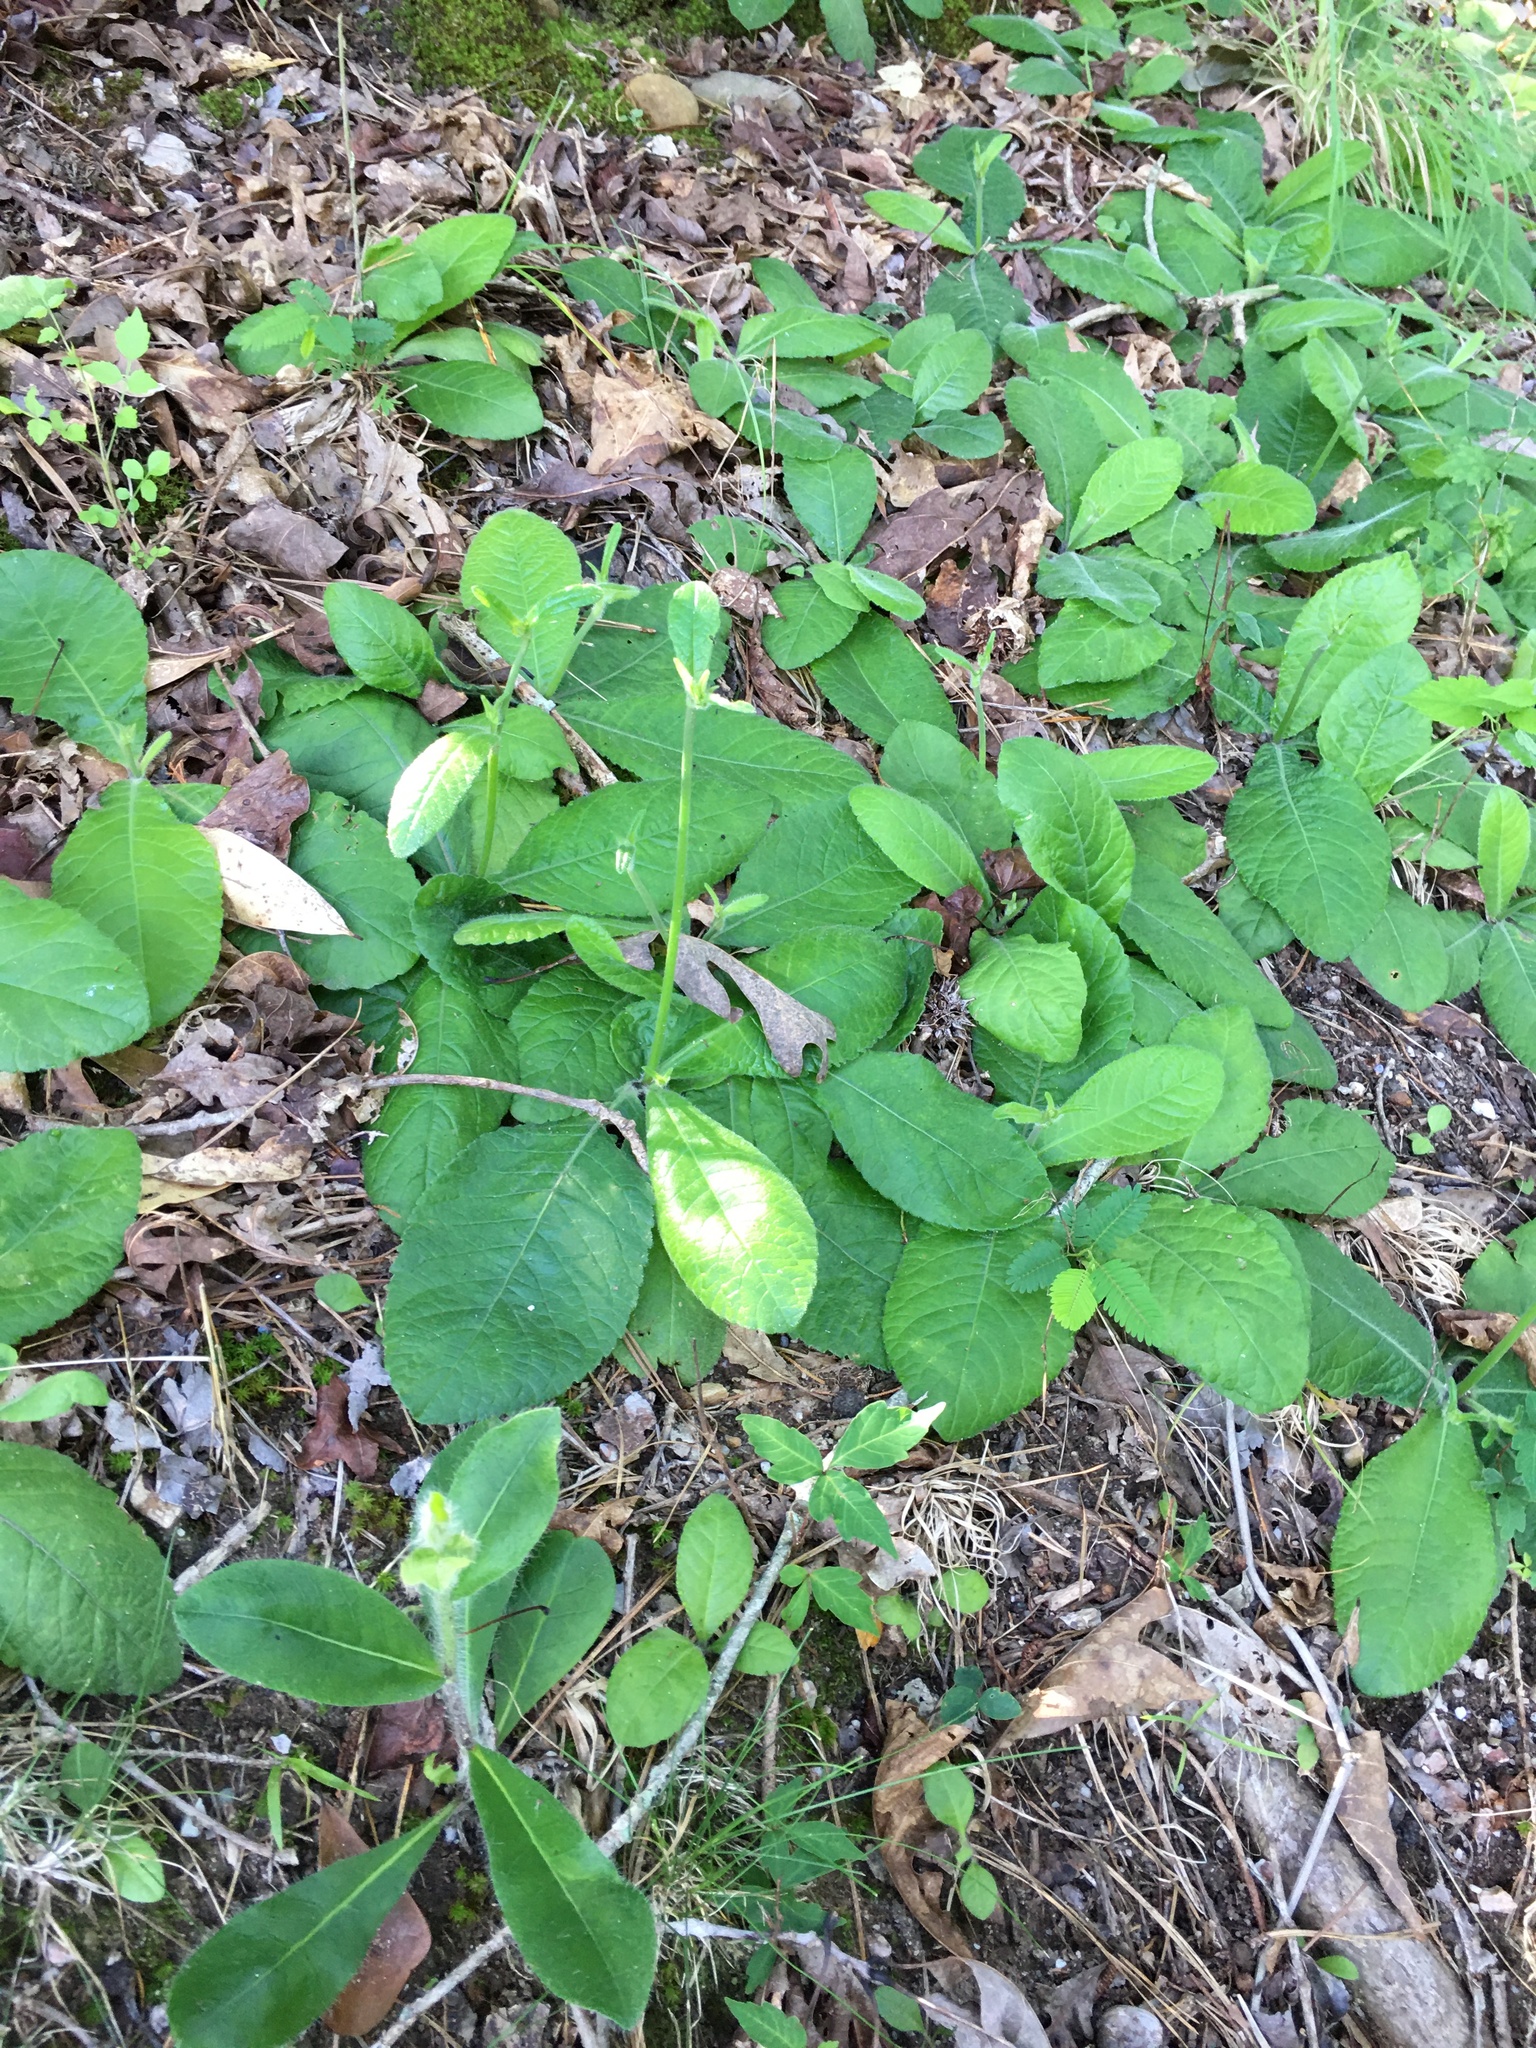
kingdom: Plantae
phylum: Tracheophyta
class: Magnoliopsida
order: Asterales
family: Asteraceae
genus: Elephantopus
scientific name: Elephantopus tomentosus
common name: Tobacco-weed
